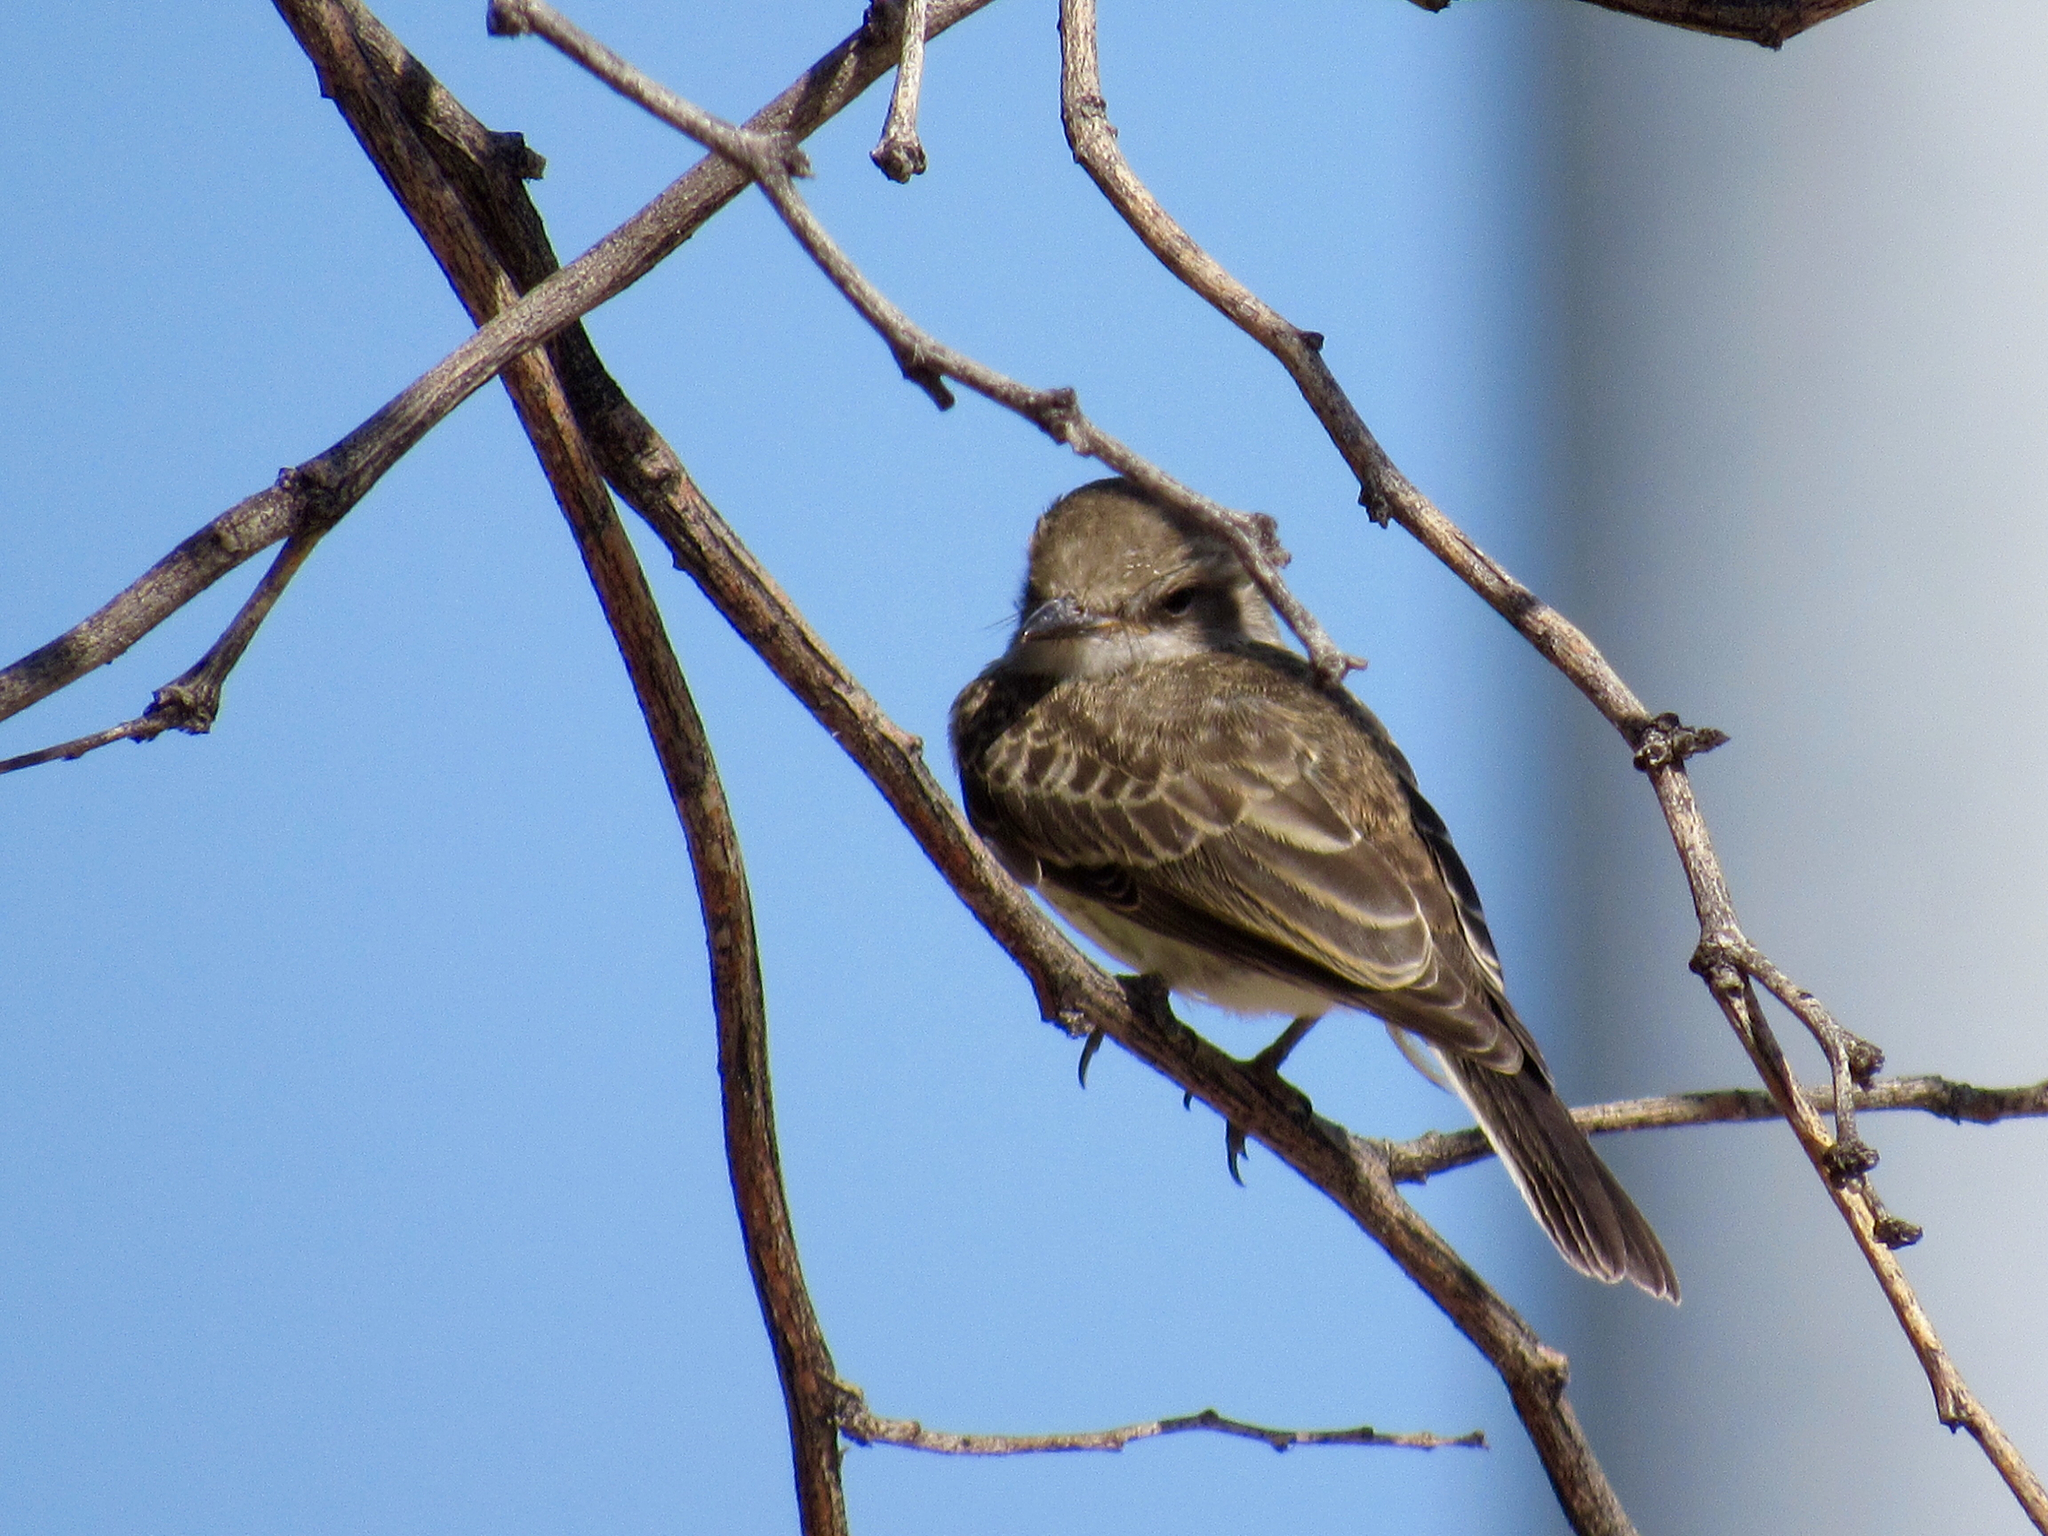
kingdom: Animalia
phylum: Chordata
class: Aves
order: Passeriformes
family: Tyrannidae
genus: Pyrocephalus
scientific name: Pyrocephalus rubinus
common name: Vermilion flycatcher
